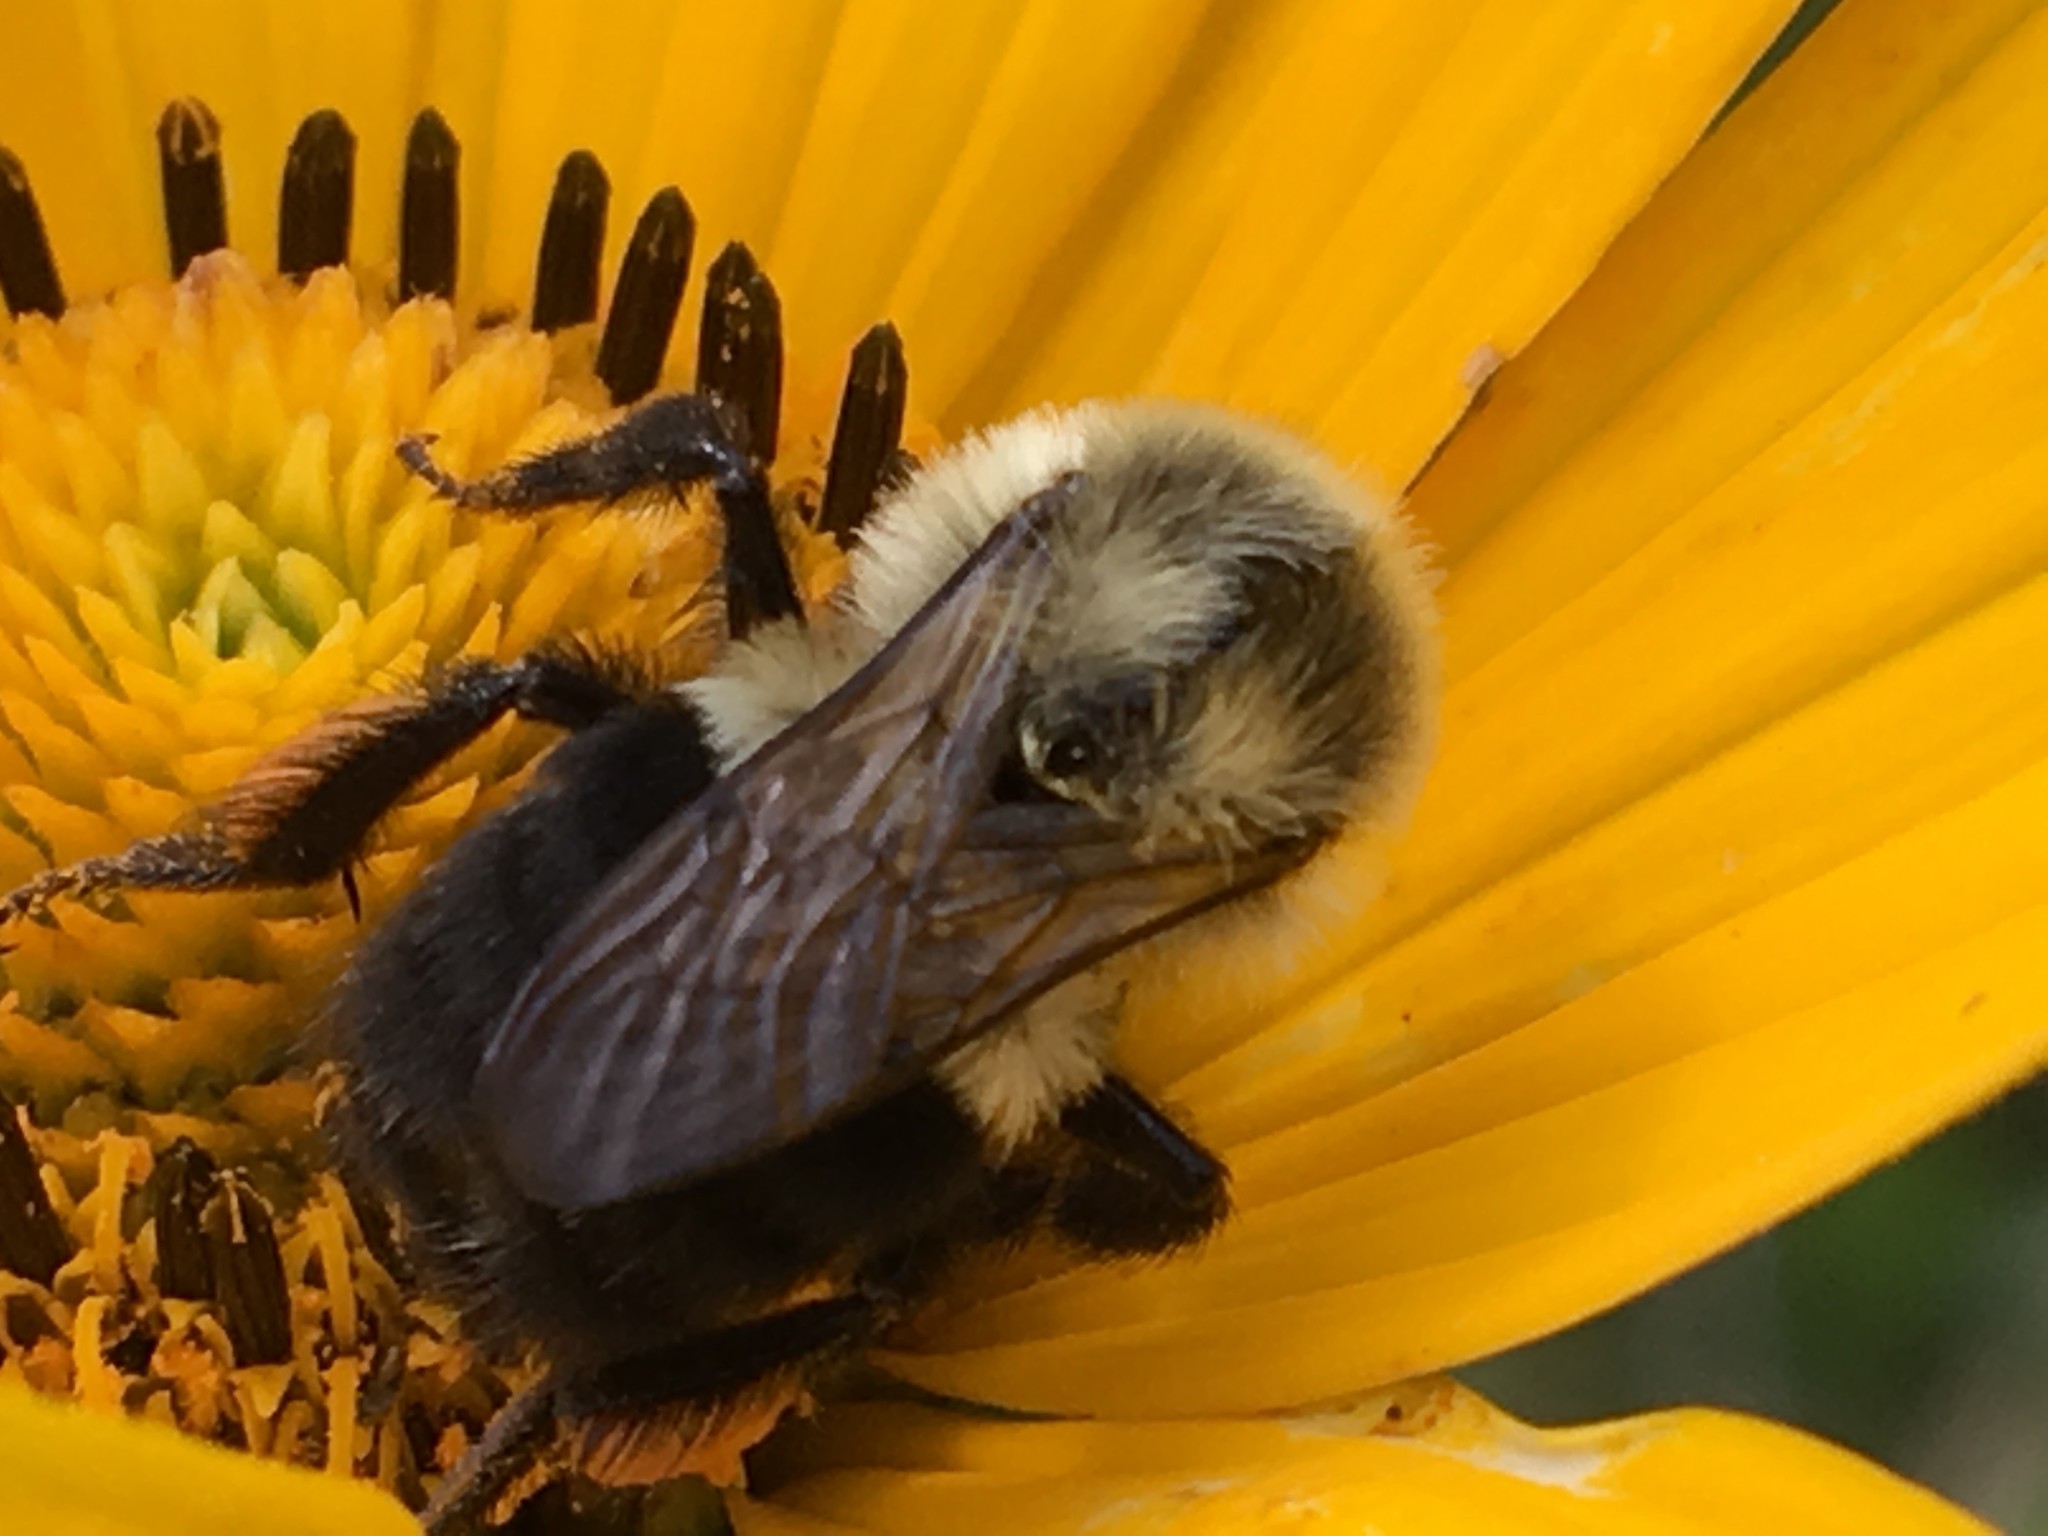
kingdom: Animalia
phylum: Arthropoda
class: Insecta
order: Hymenoptera
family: Apidae
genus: Bombus
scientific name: Bombus impatiens
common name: Common eastern bumble bee
